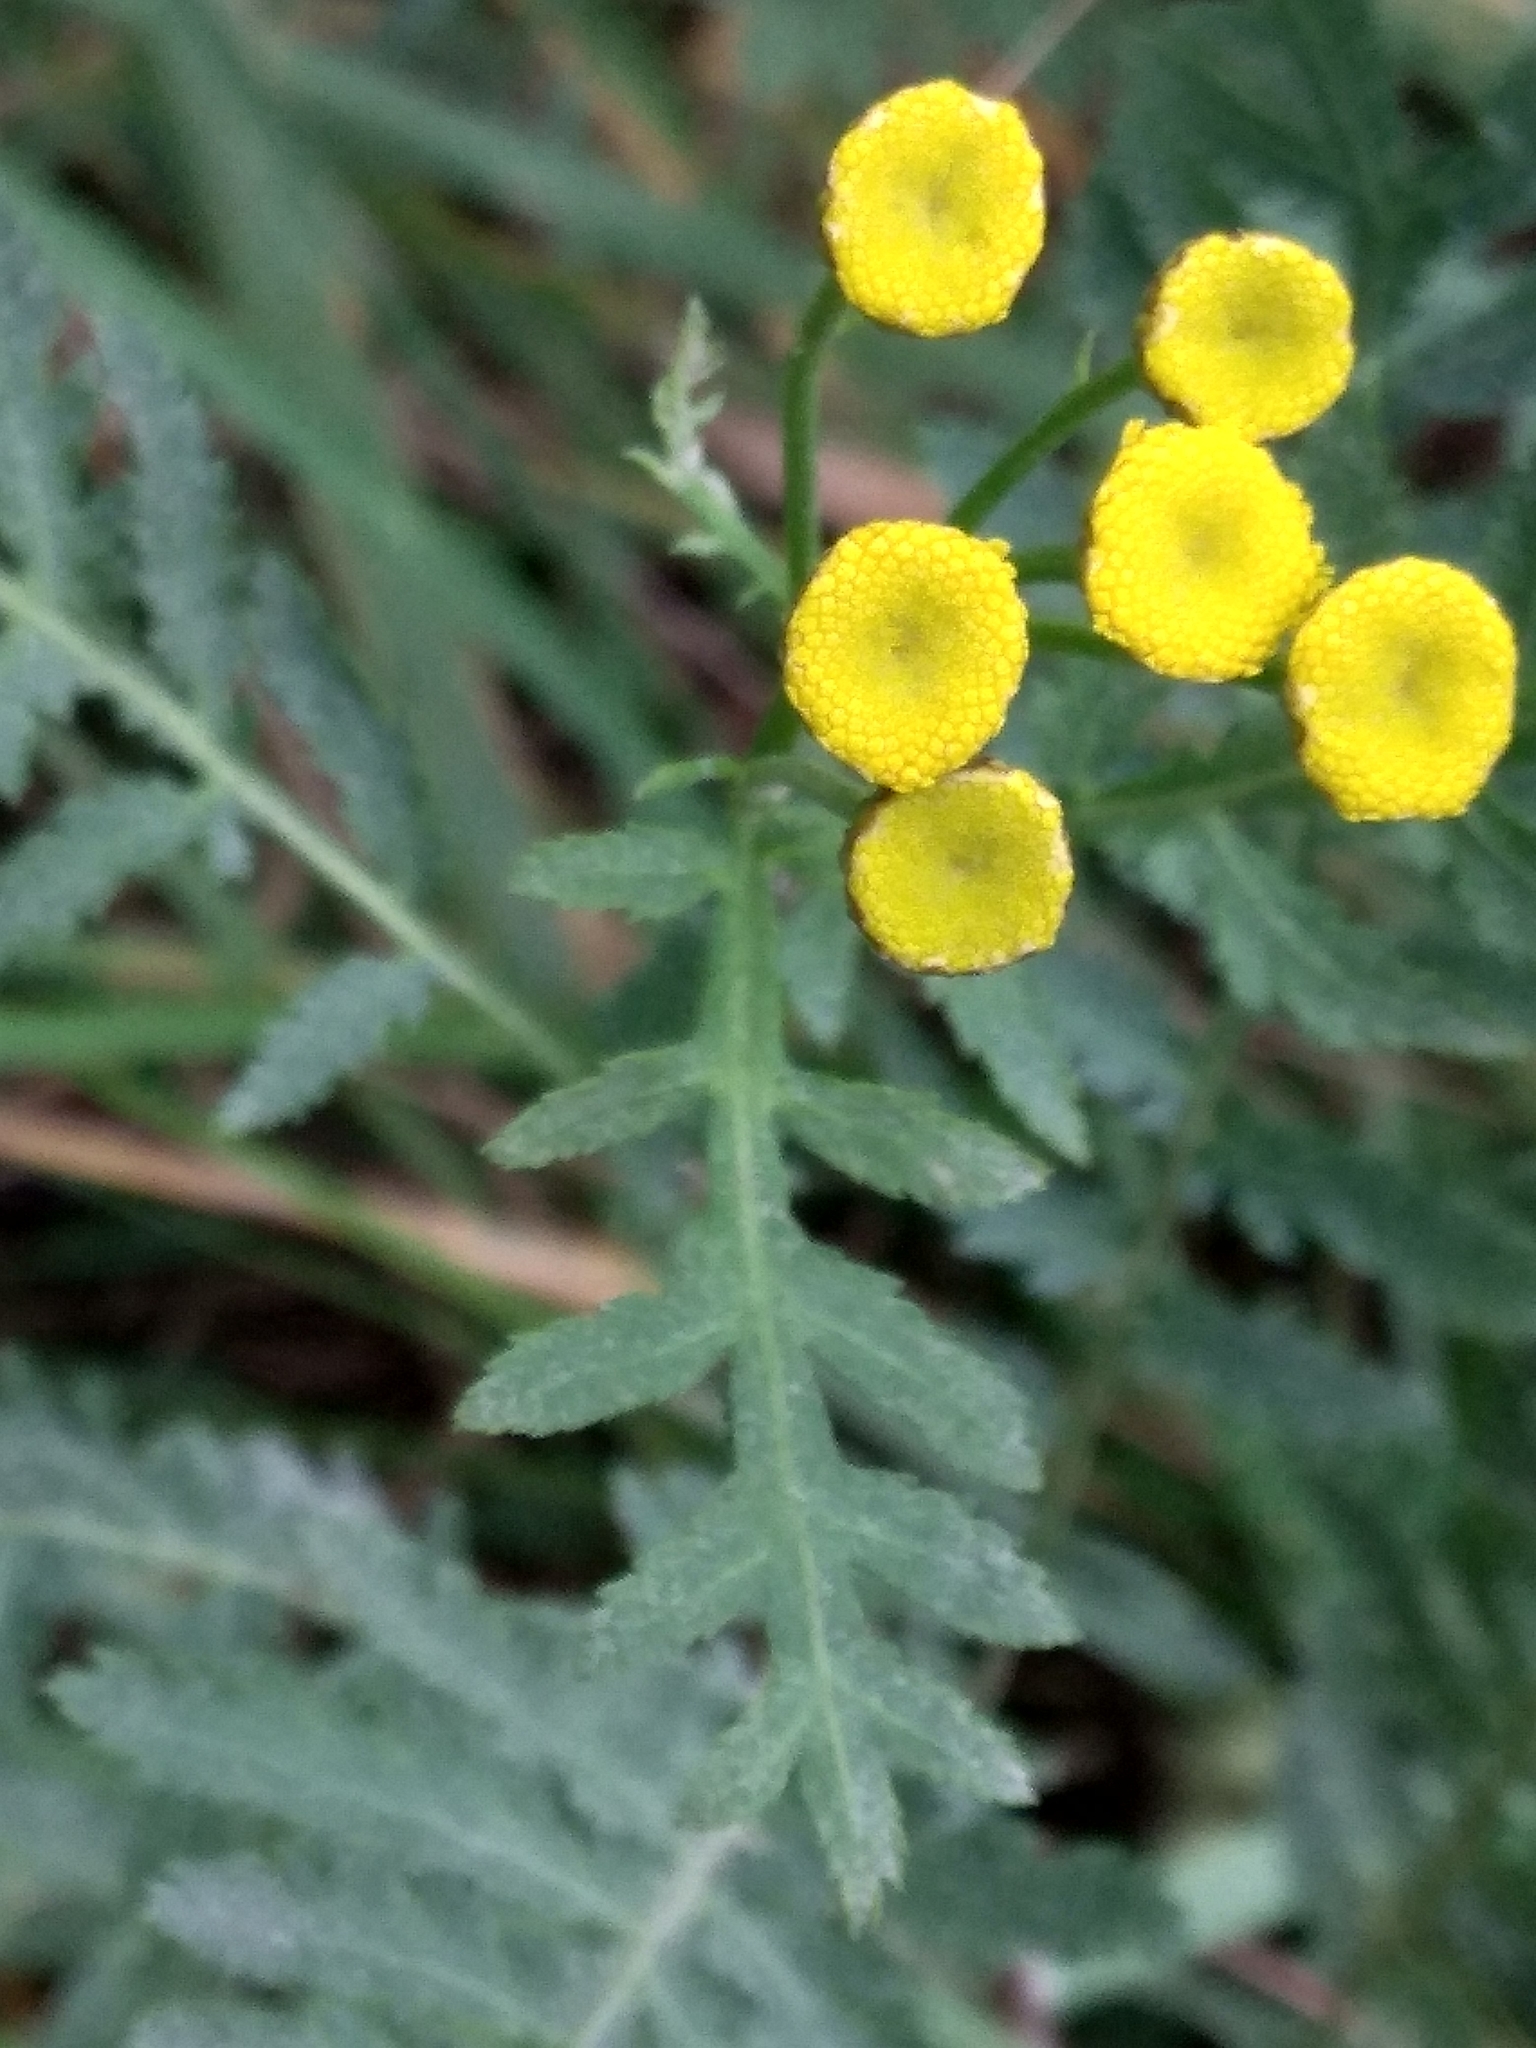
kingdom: Plantae
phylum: Tracheophyta
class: Magnoliopsida
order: Asterales
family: Asteraceae
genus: Tanacetum
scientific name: Tanacetum vulgare
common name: Common tansy
